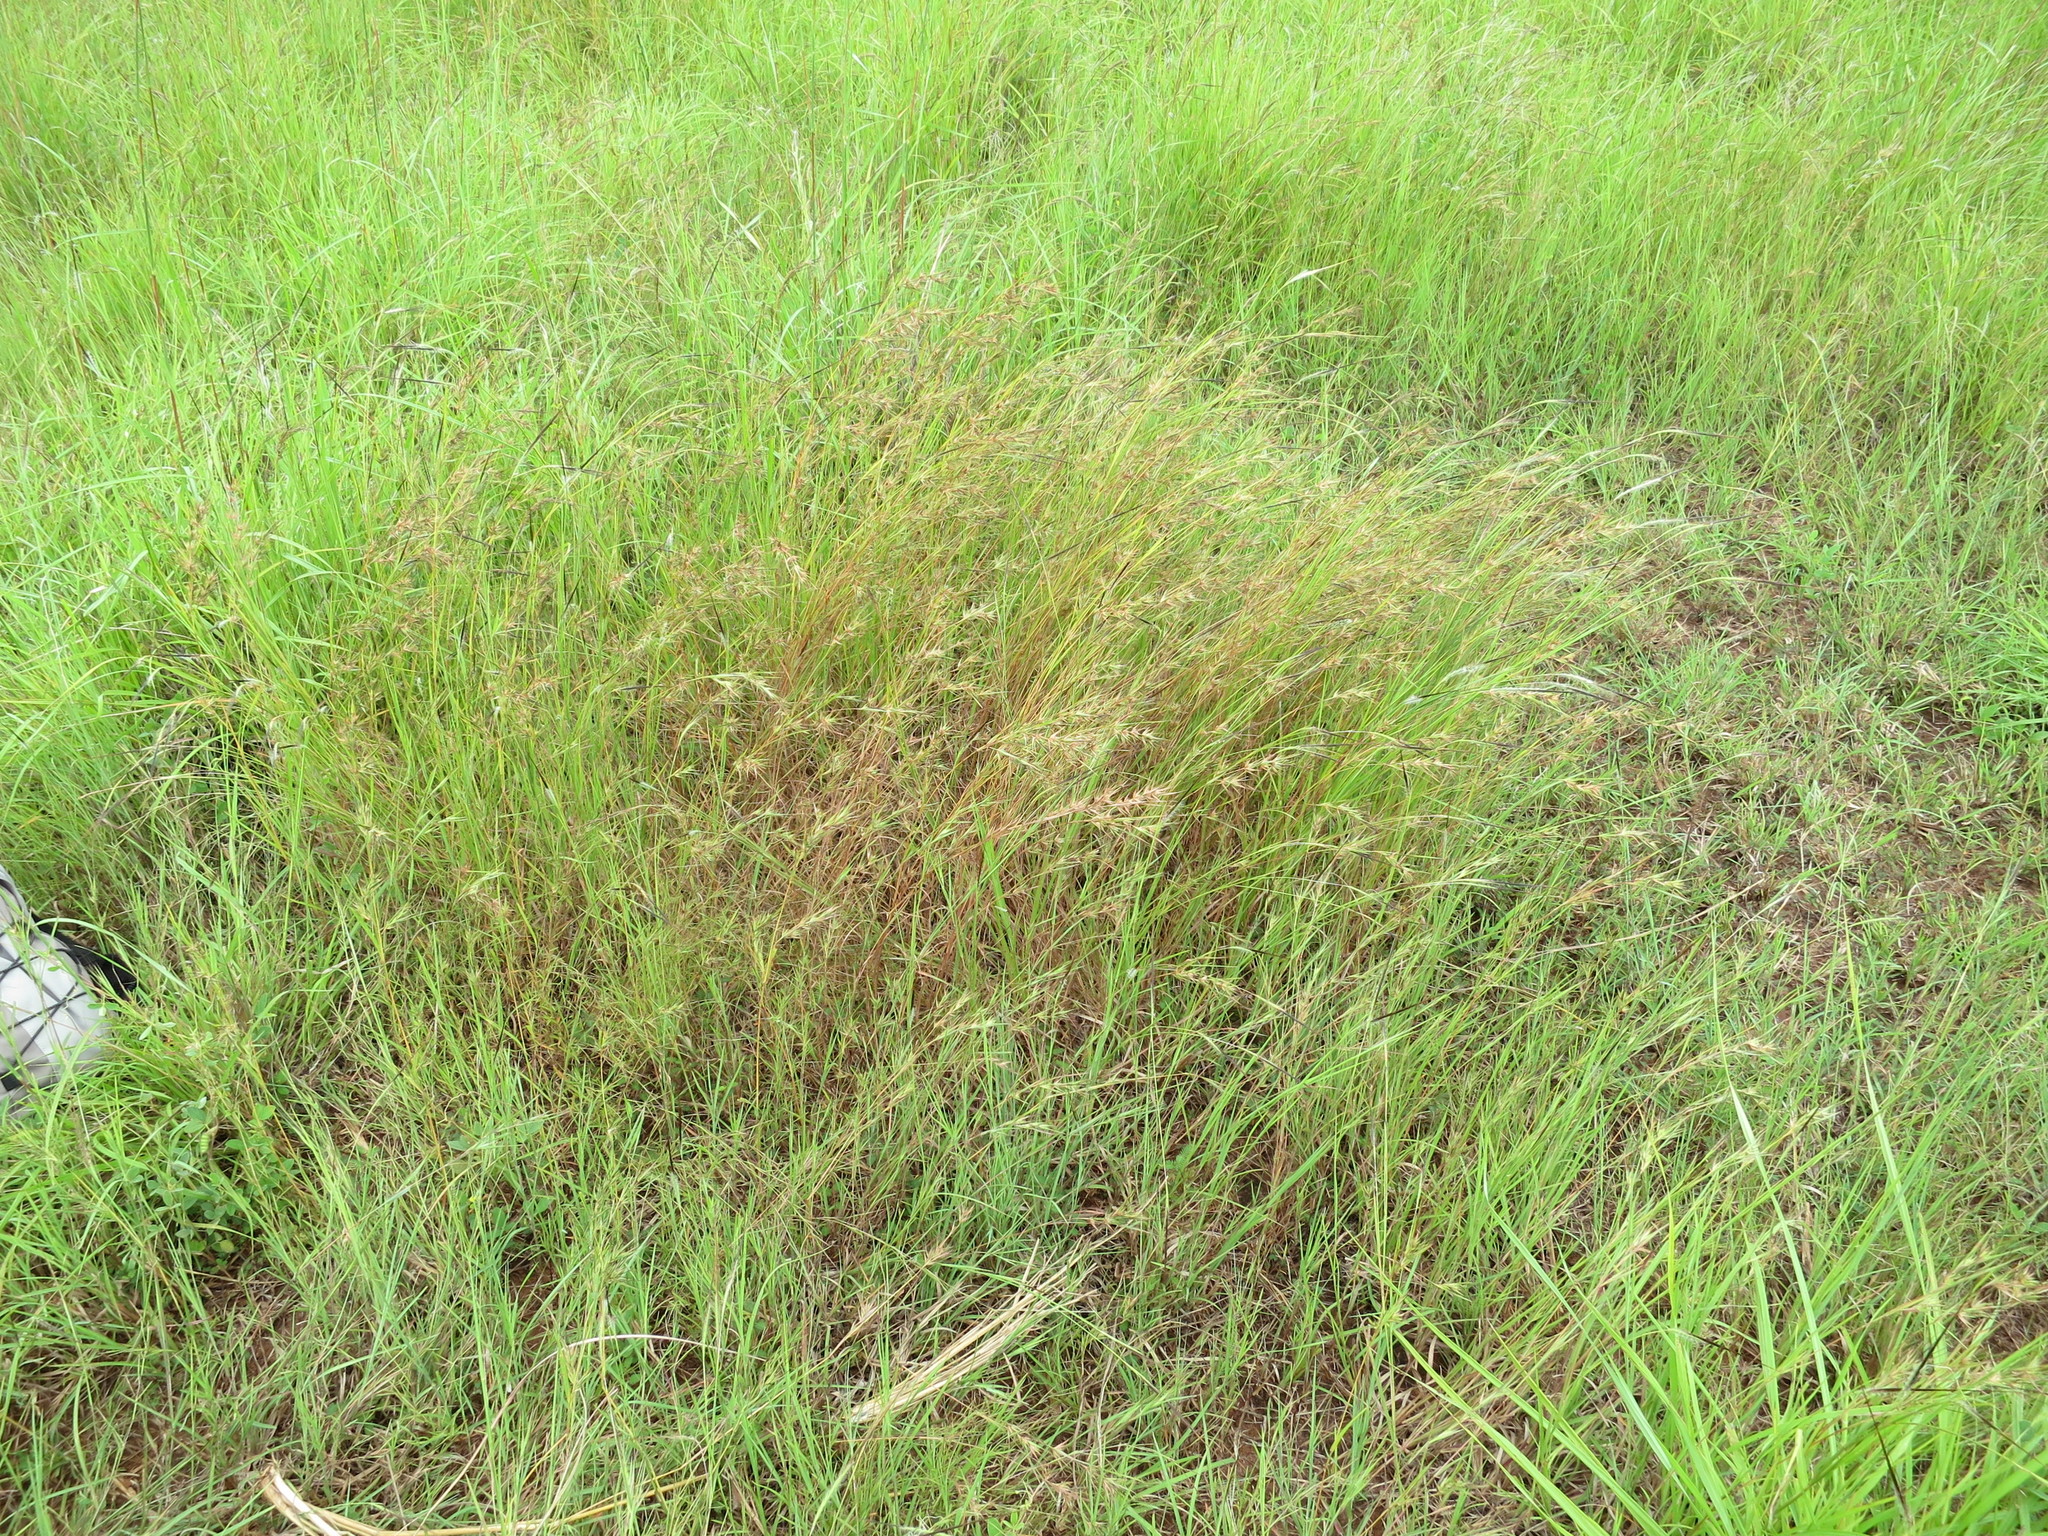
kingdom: Plantae
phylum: Tracheophyta
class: Liliopsida
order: Poales
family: Poaceae
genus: Themeda
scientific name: Themeda quadrivalvis
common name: Kangaroo grass
